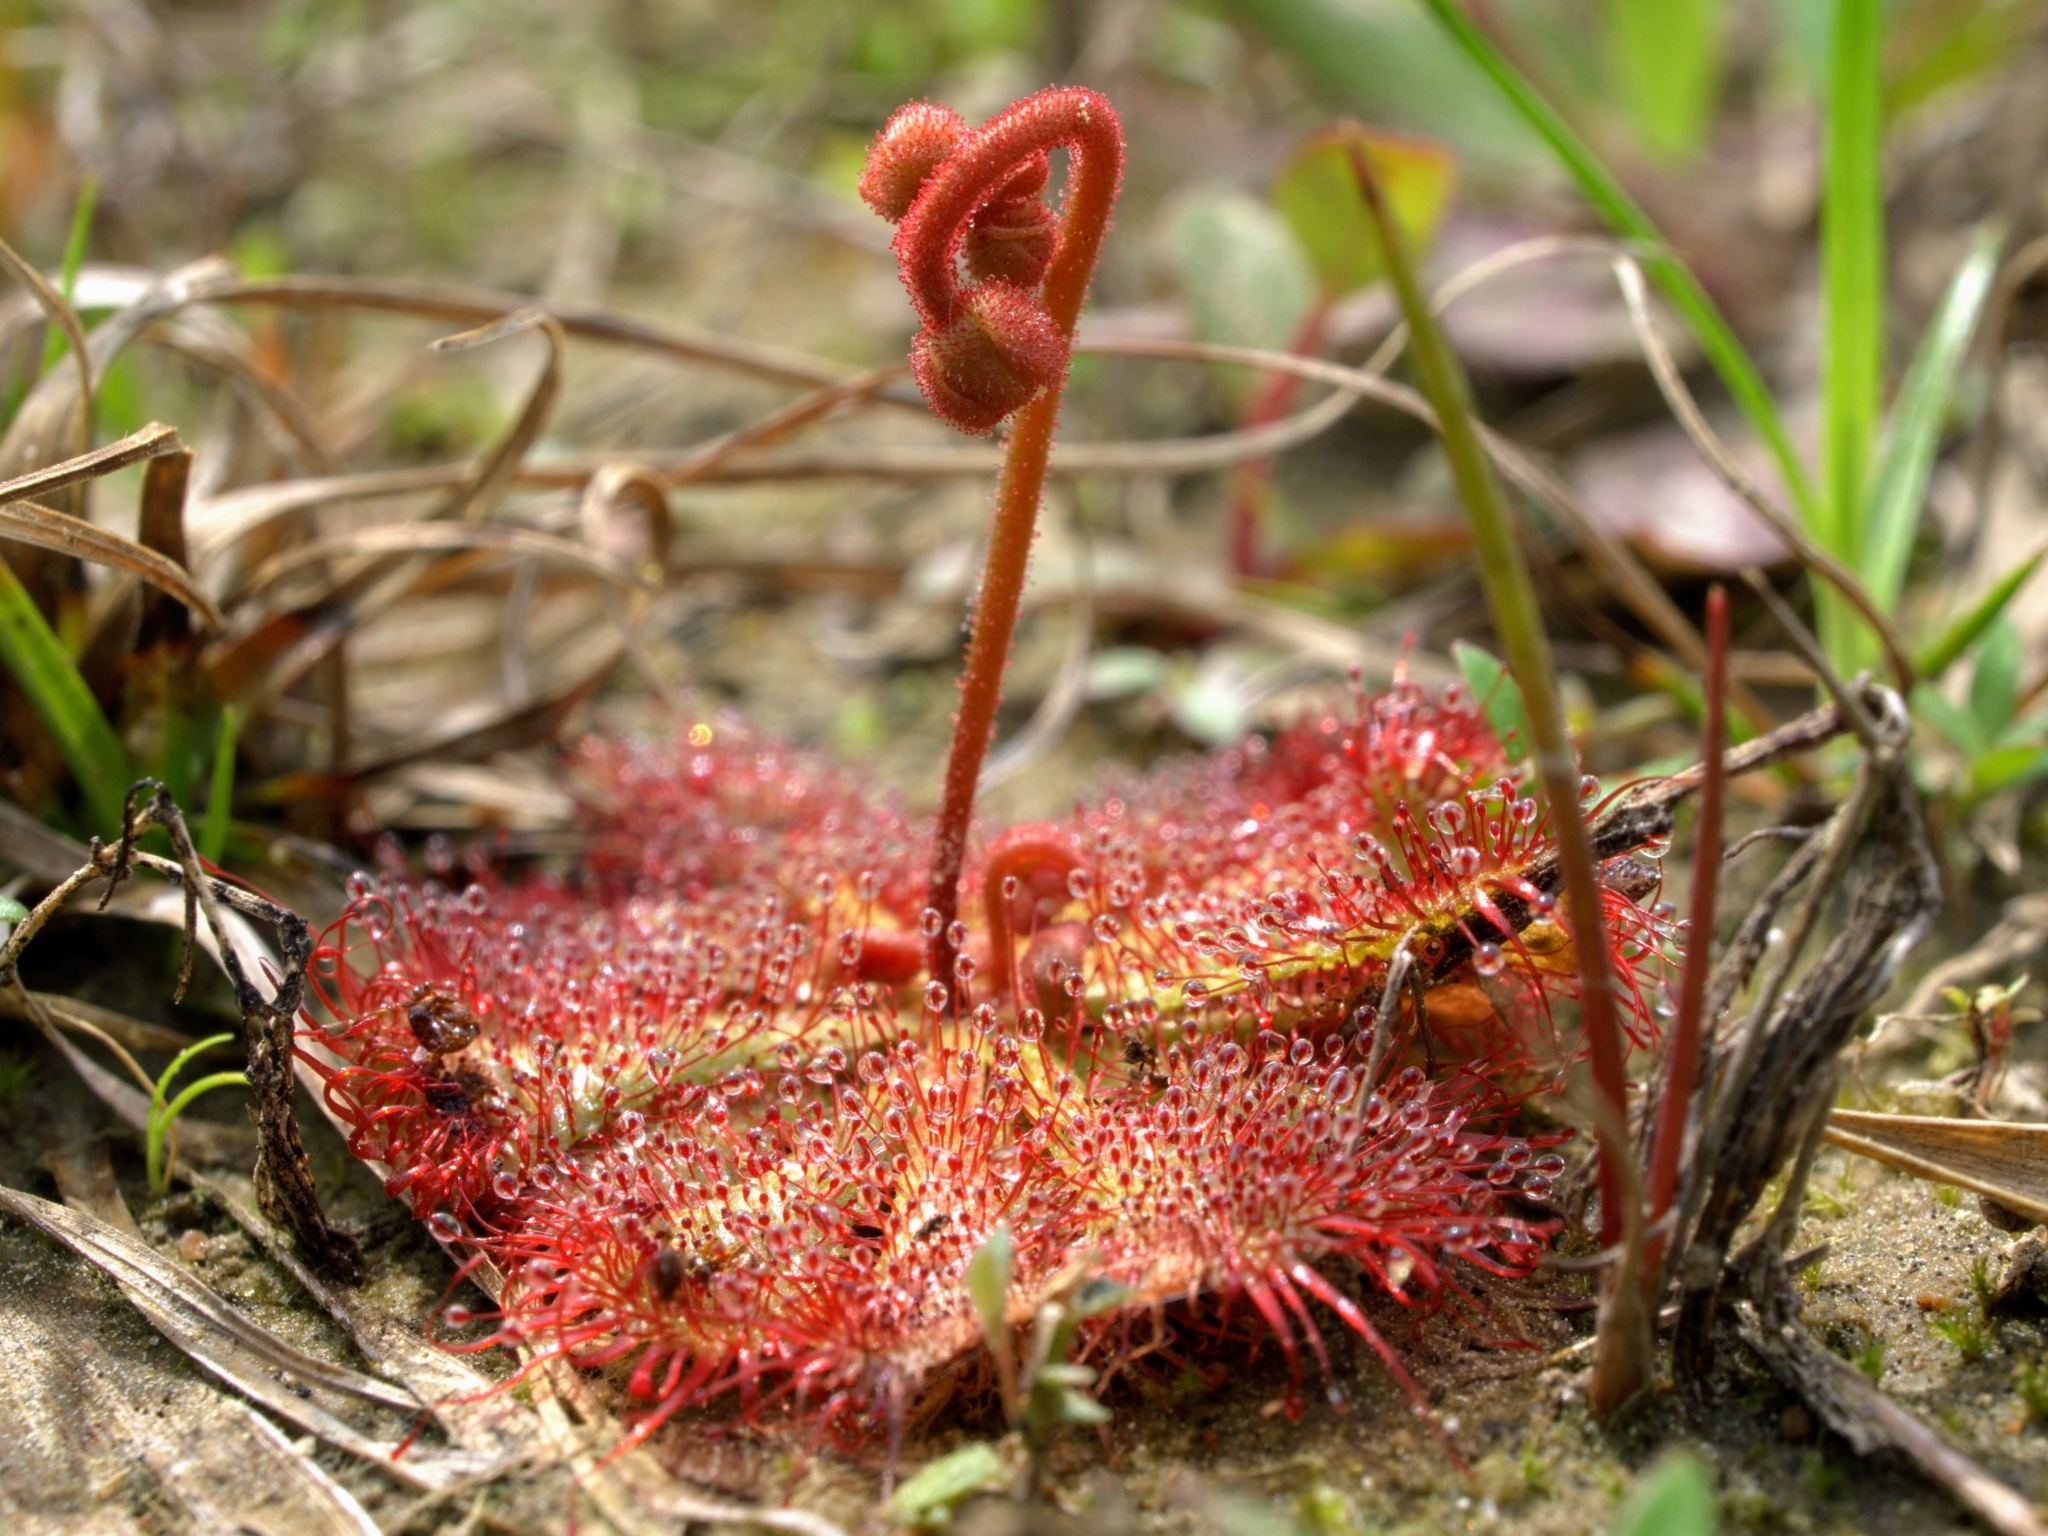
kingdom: Plantae
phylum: Tracheophyta
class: Magnoliopsida
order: Caryophyllales
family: Droseraceae
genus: Drosera
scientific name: Drosera brevifolia
